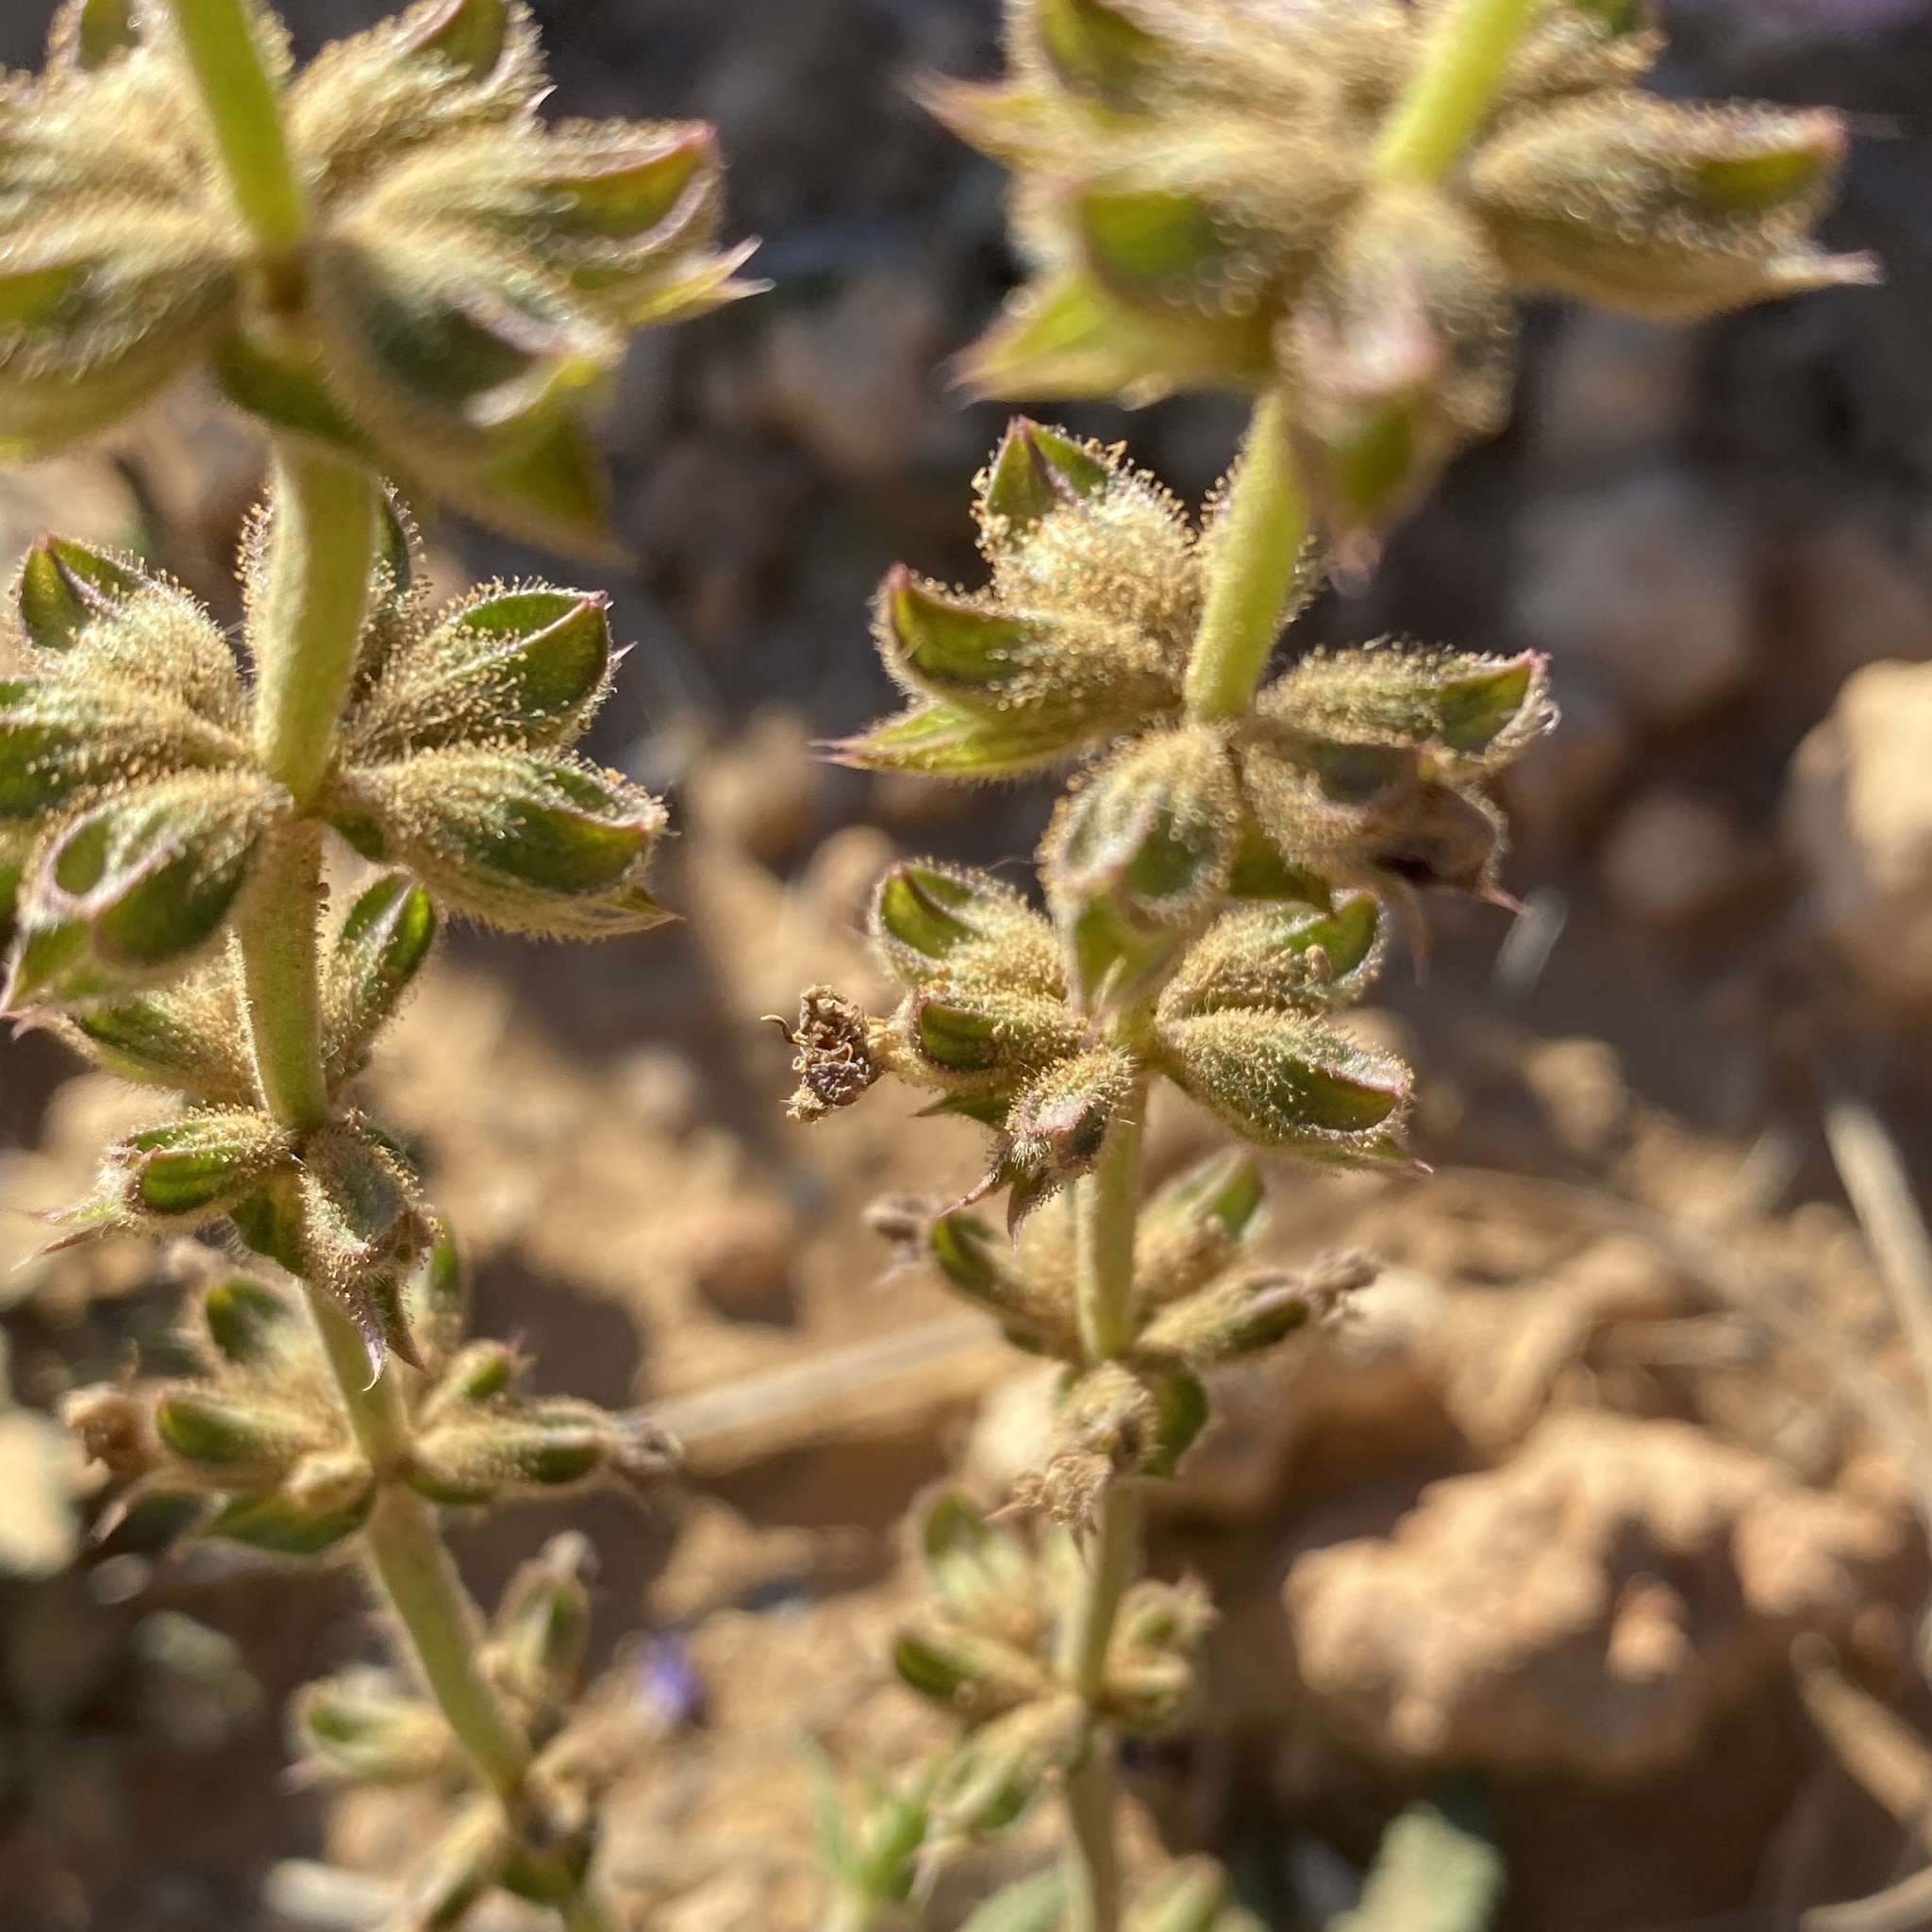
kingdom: Plantae
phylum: Tracheophyta
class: Magnoliopsida
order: Lamiales
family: Lamiaceae
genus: Salvia
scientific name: Salvia verbenaca
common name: Wild clary
